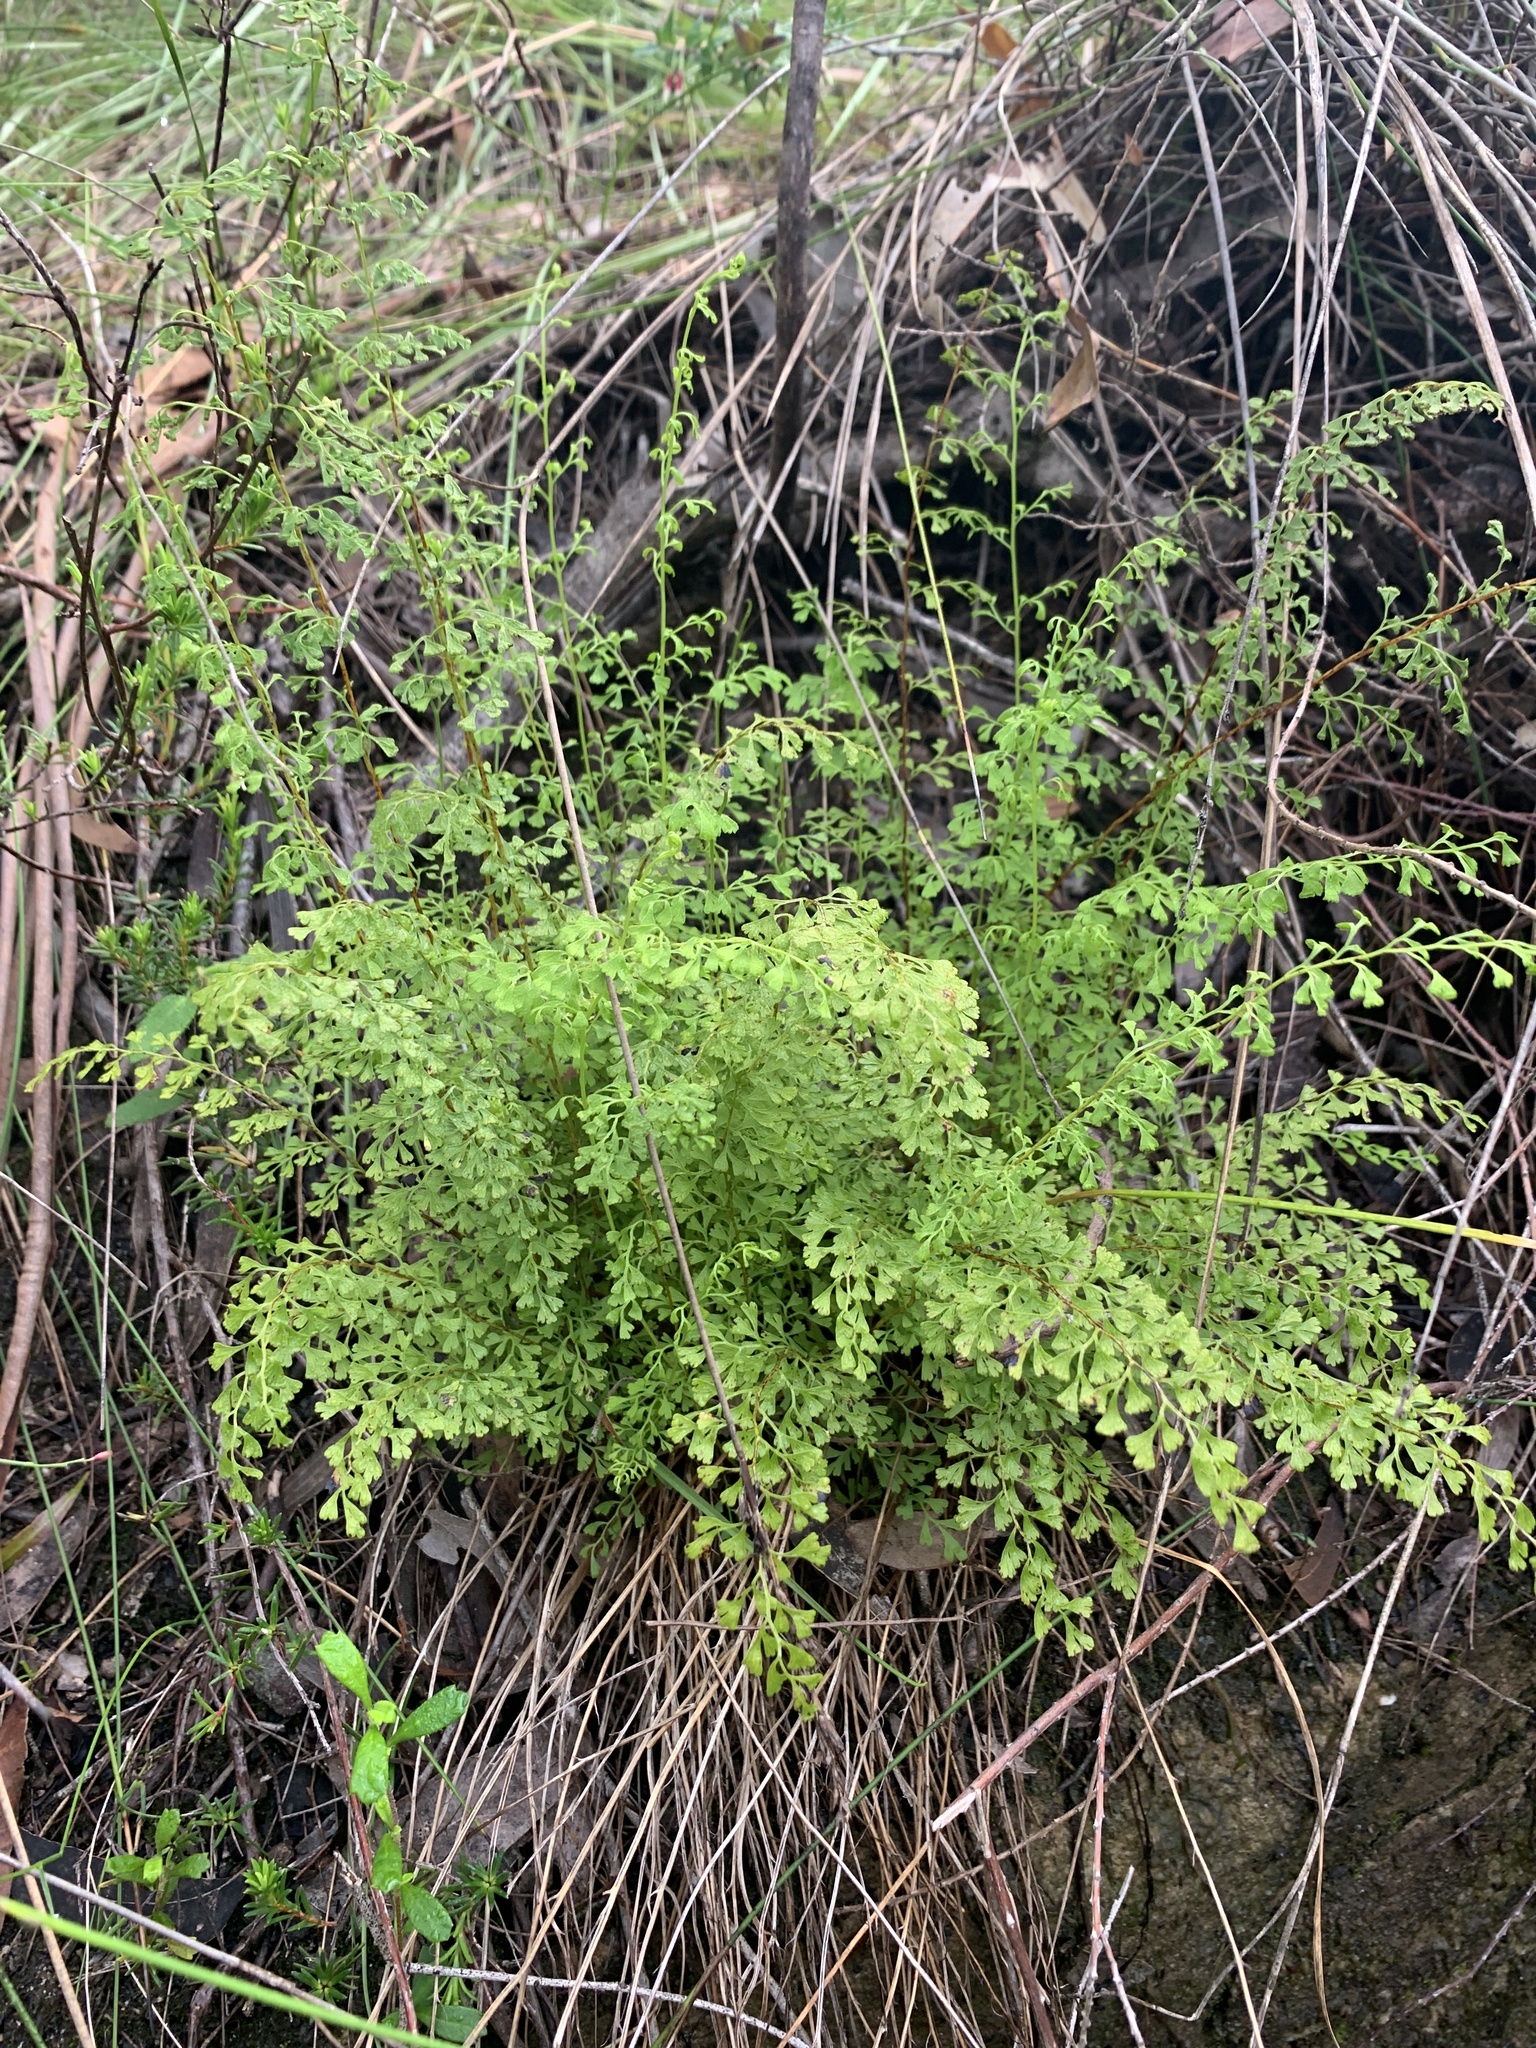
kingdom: Plantae
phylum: Tracheophyta
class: Polypodiopsida
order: Polypodiales
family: Lindsaeaceae
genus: Lindsaea
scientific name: Lindsaea microphylla
